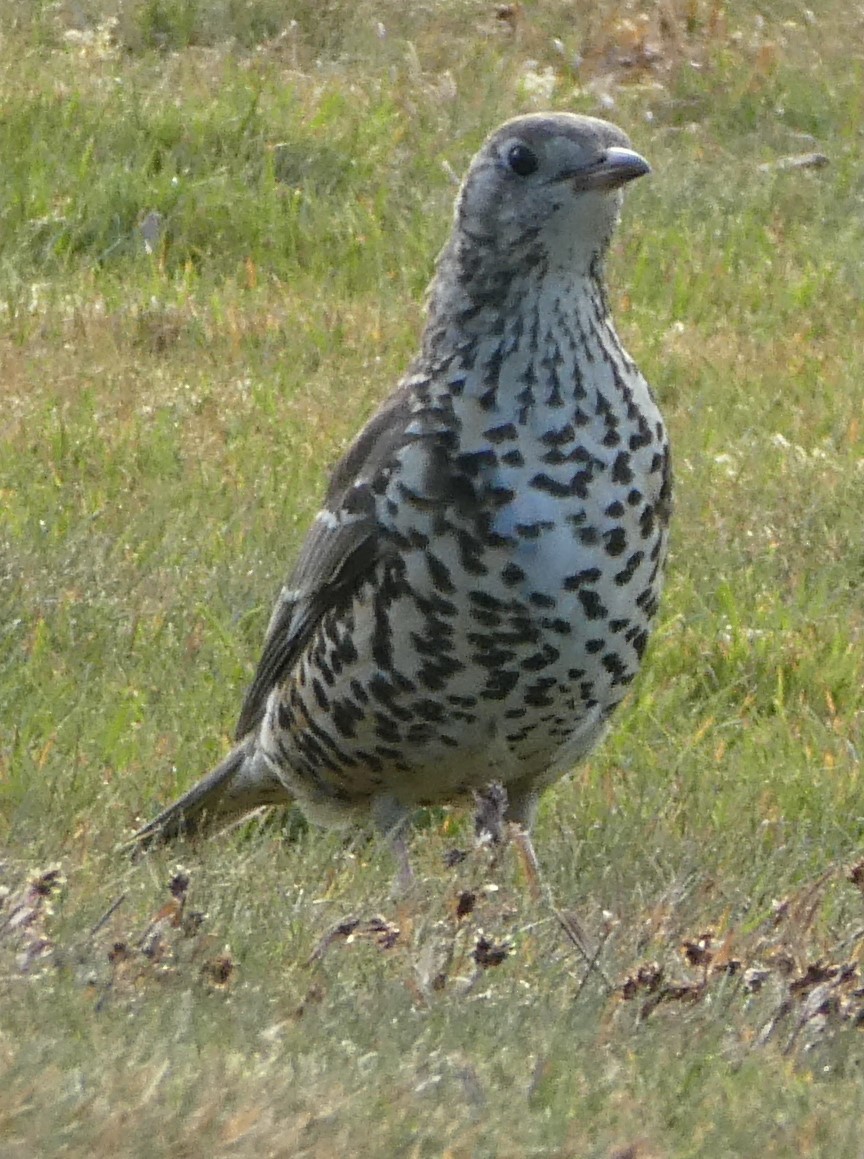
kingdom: Animalia
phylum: Chordata
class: Aves
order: Passeriformes
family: Turdidae
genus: Turdus
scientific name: Turdus viscivorus
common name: Mistle thrush
